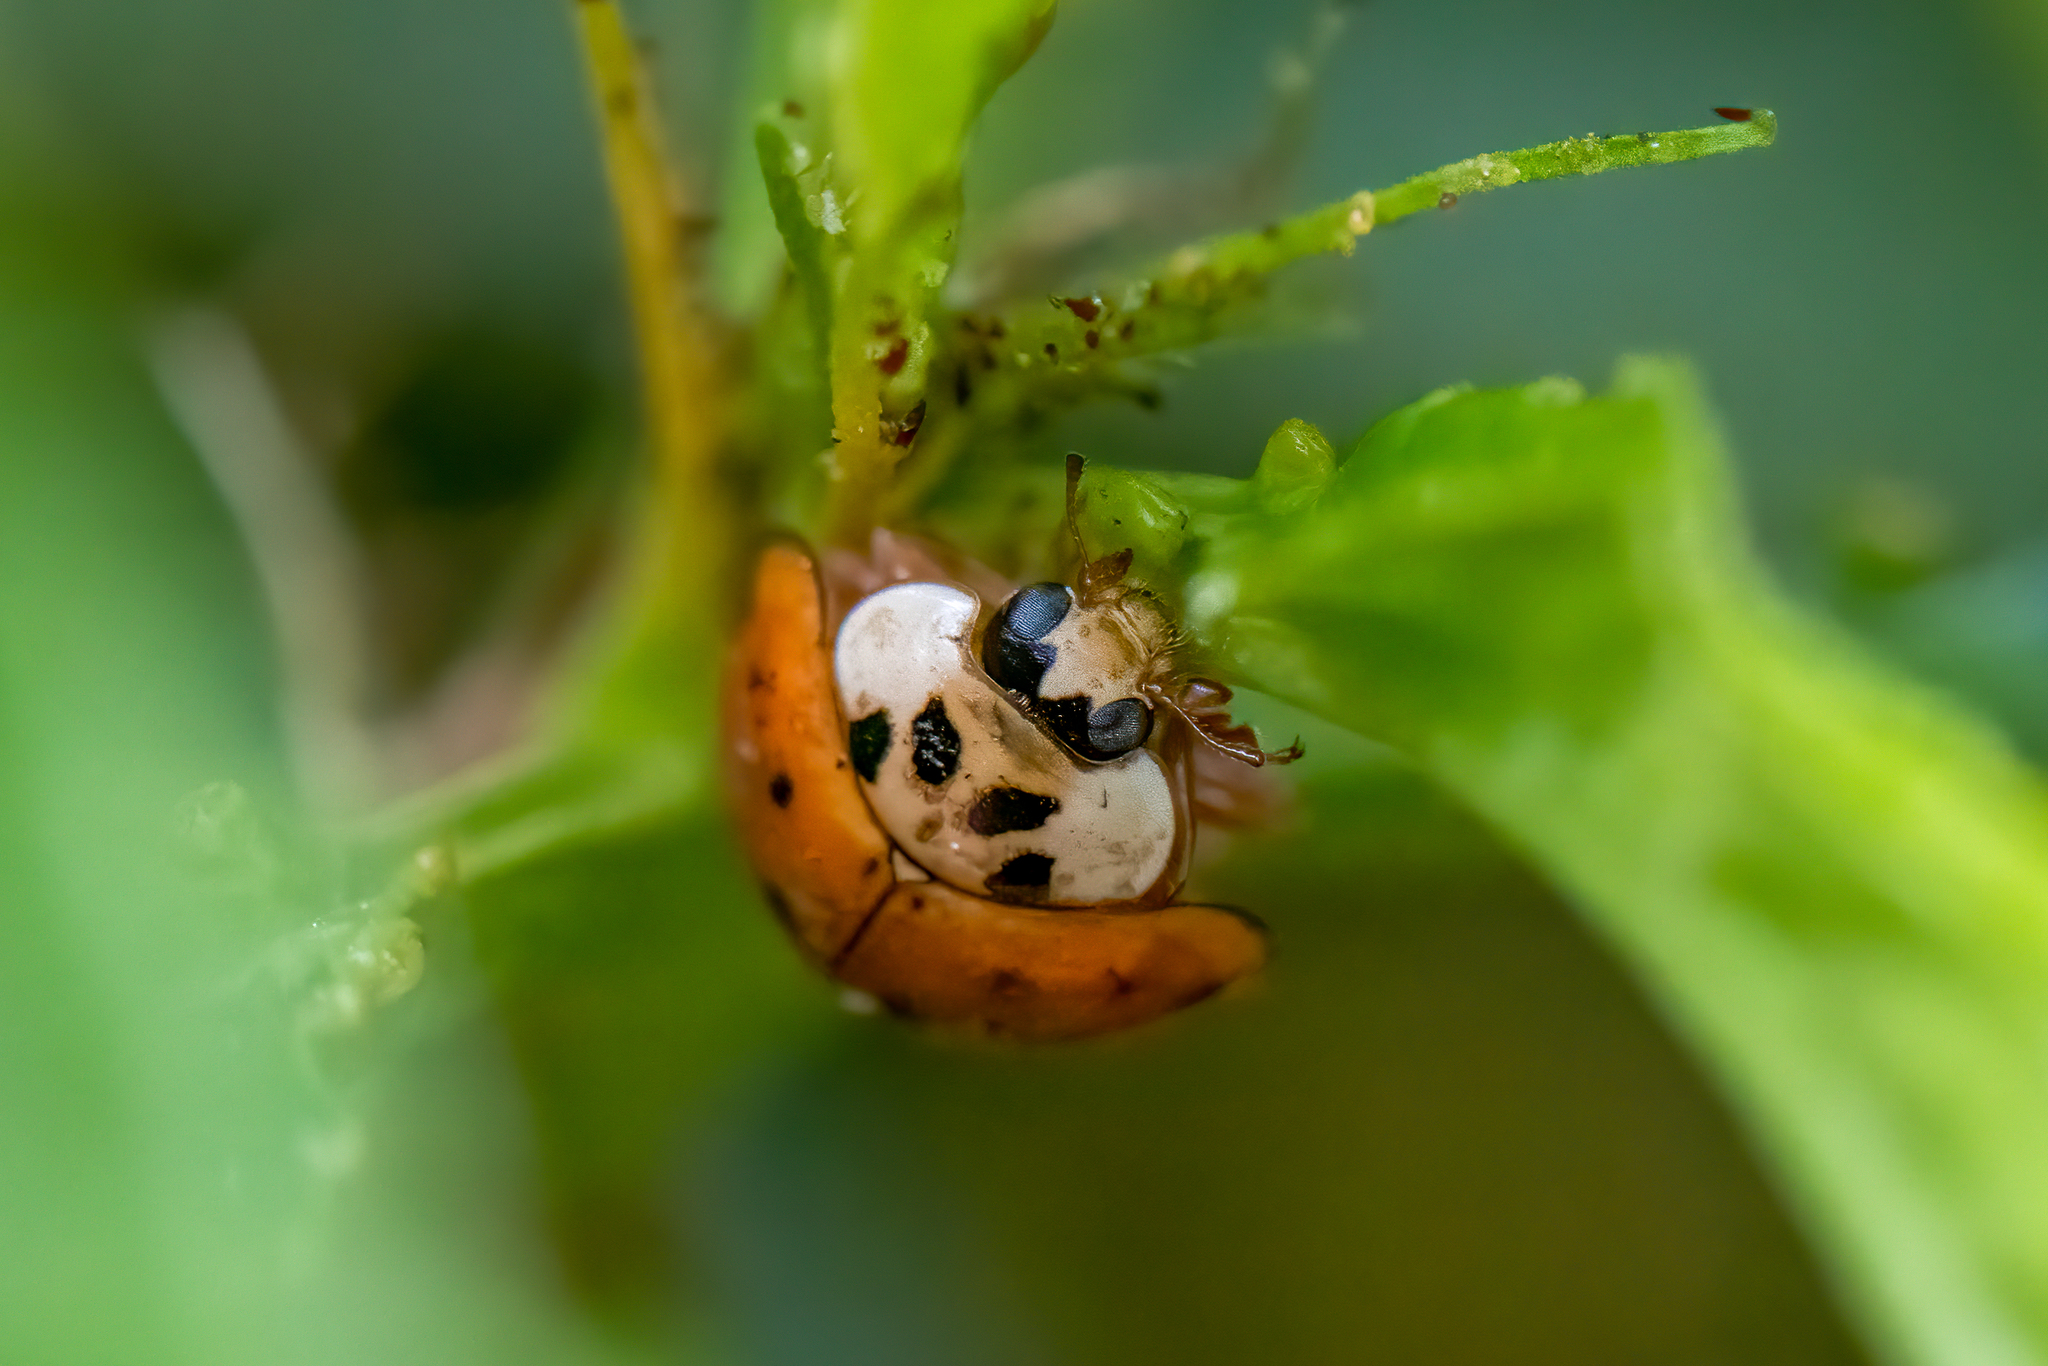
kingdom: Animalia
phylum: Arthropoda
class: Insecta
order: Coleoptera
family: Coccinellidae
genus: Harmonia
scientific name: Harmonia axyridis
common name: Harlequin ladybird
